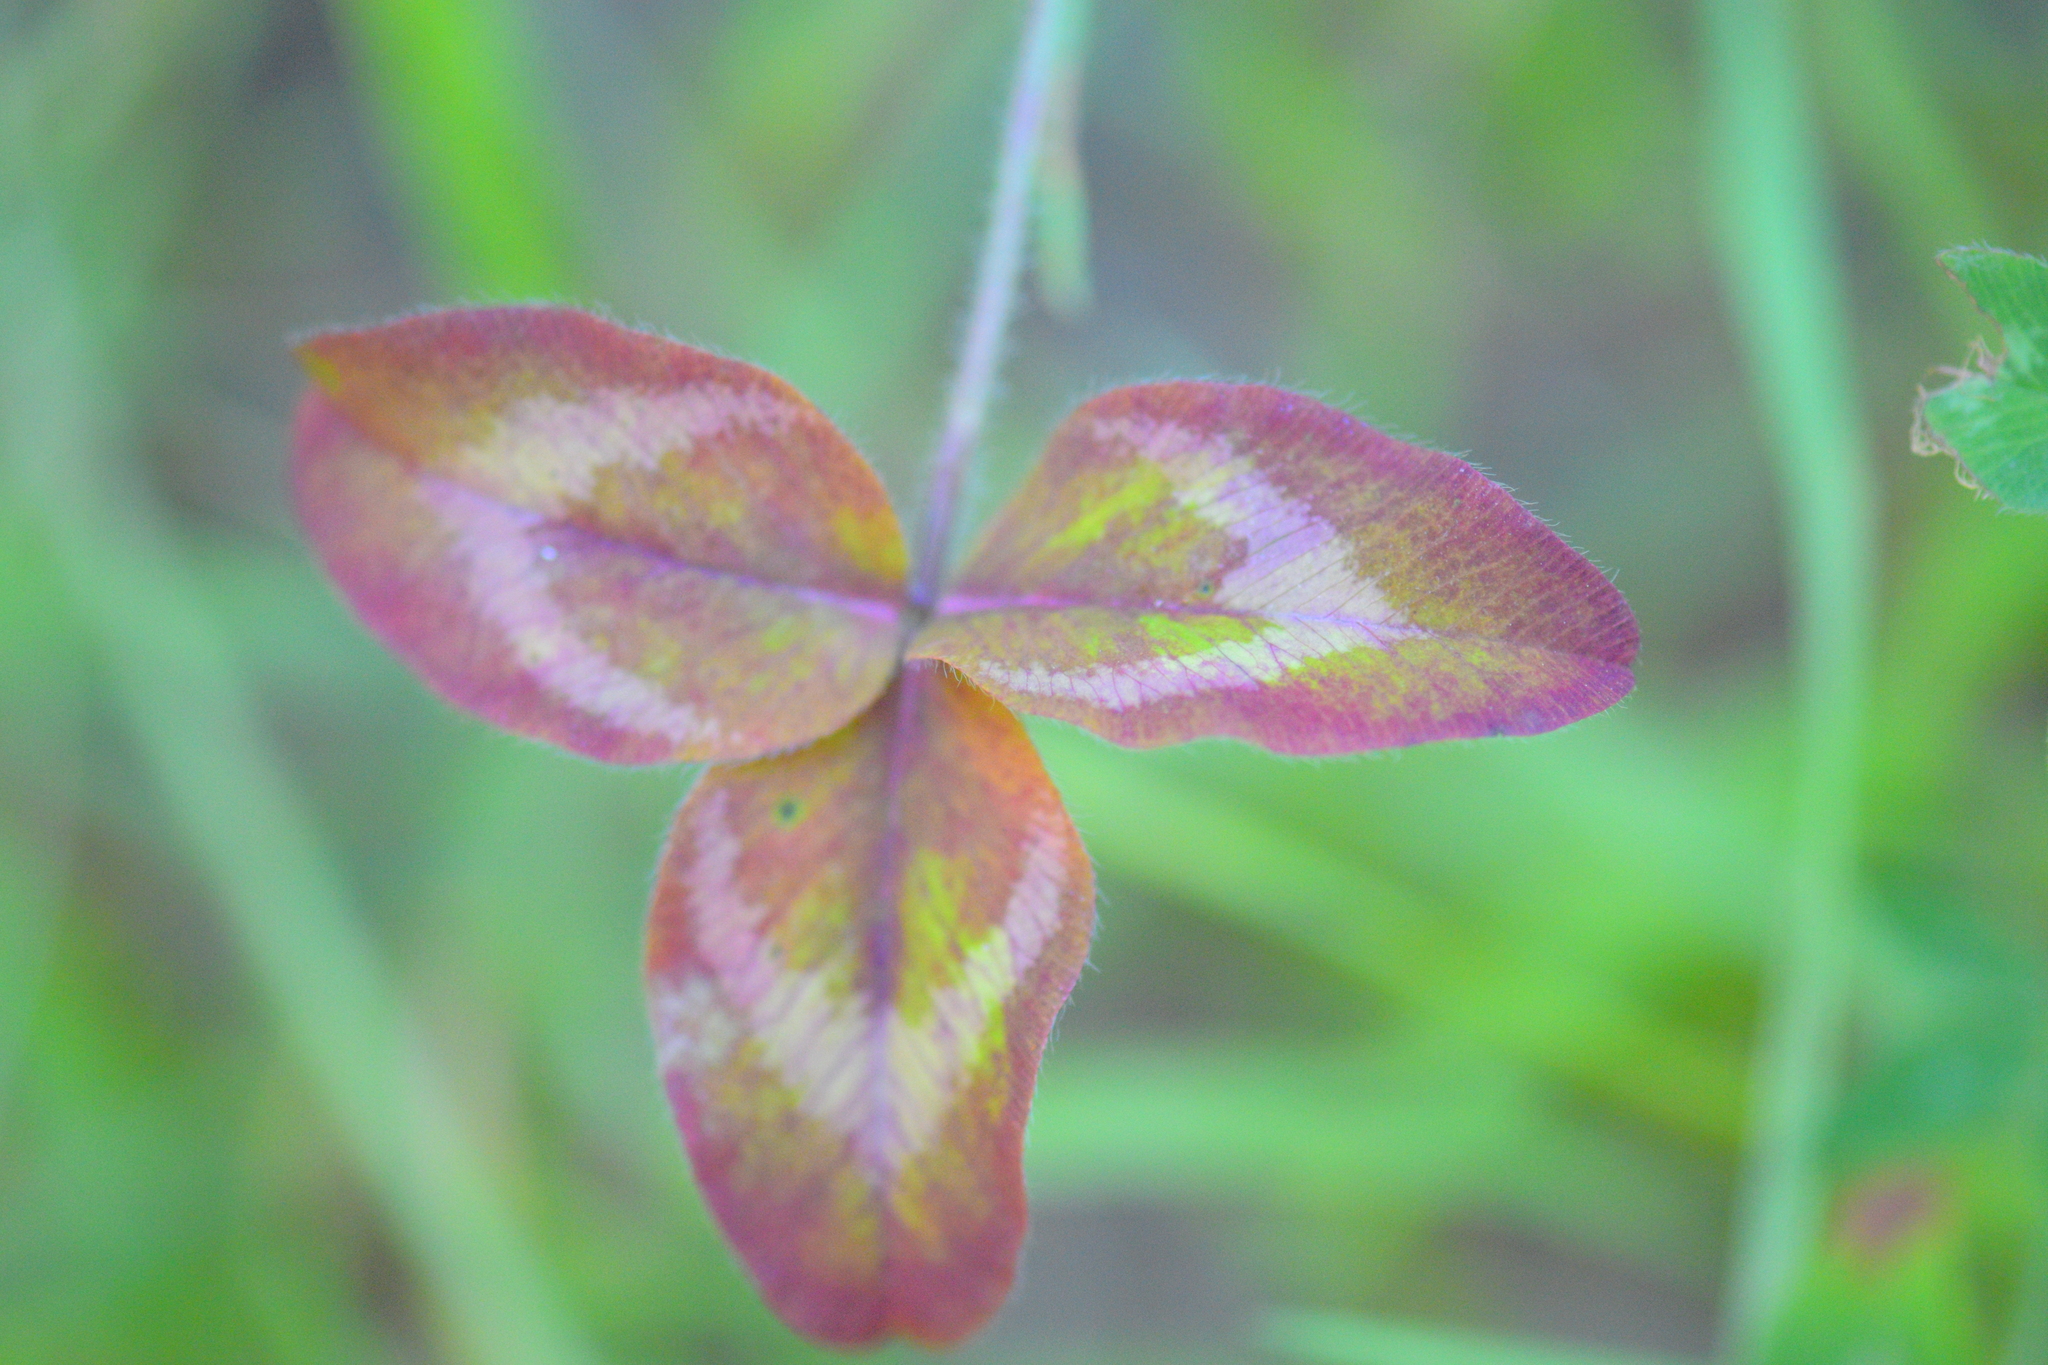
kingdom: Plantae
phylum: Tracheophyta
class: Magnoliopsida
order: Fabales
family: Fabaceae
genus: Trifolium
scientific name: Trifolium pratense
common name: Red clover
